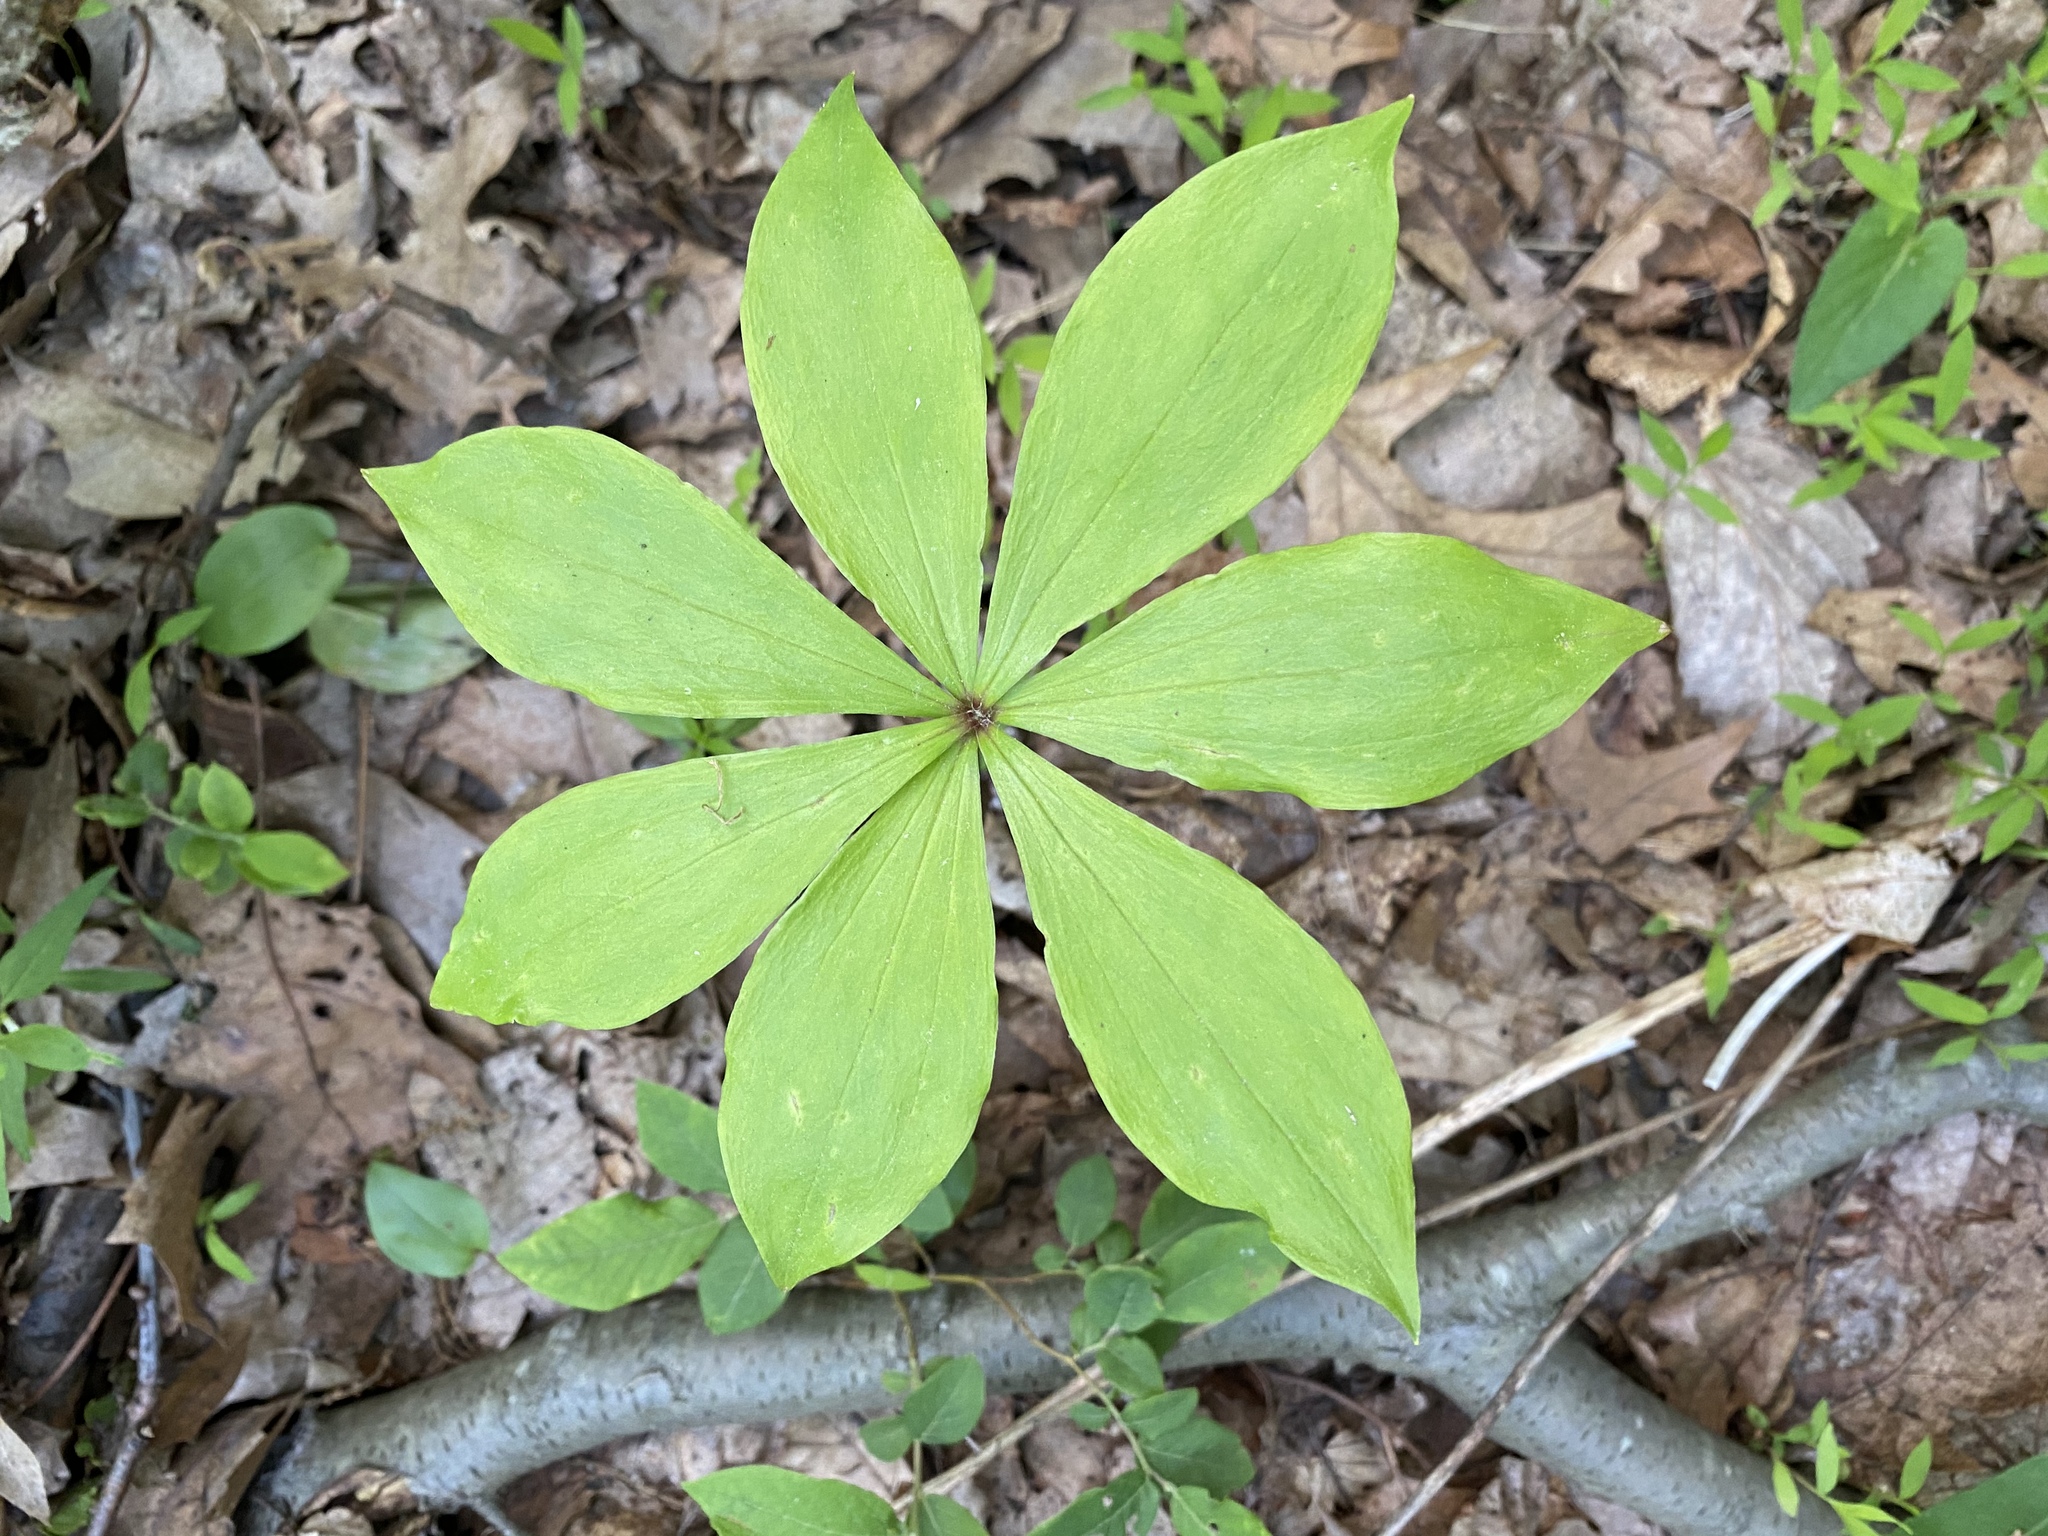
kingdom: Plantae
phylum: Tracheophyta
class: Liliopsida
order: Liliales
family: Liliaceae
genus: Medeola
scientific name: Medeola virginiana
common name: Indian cucumber-root
